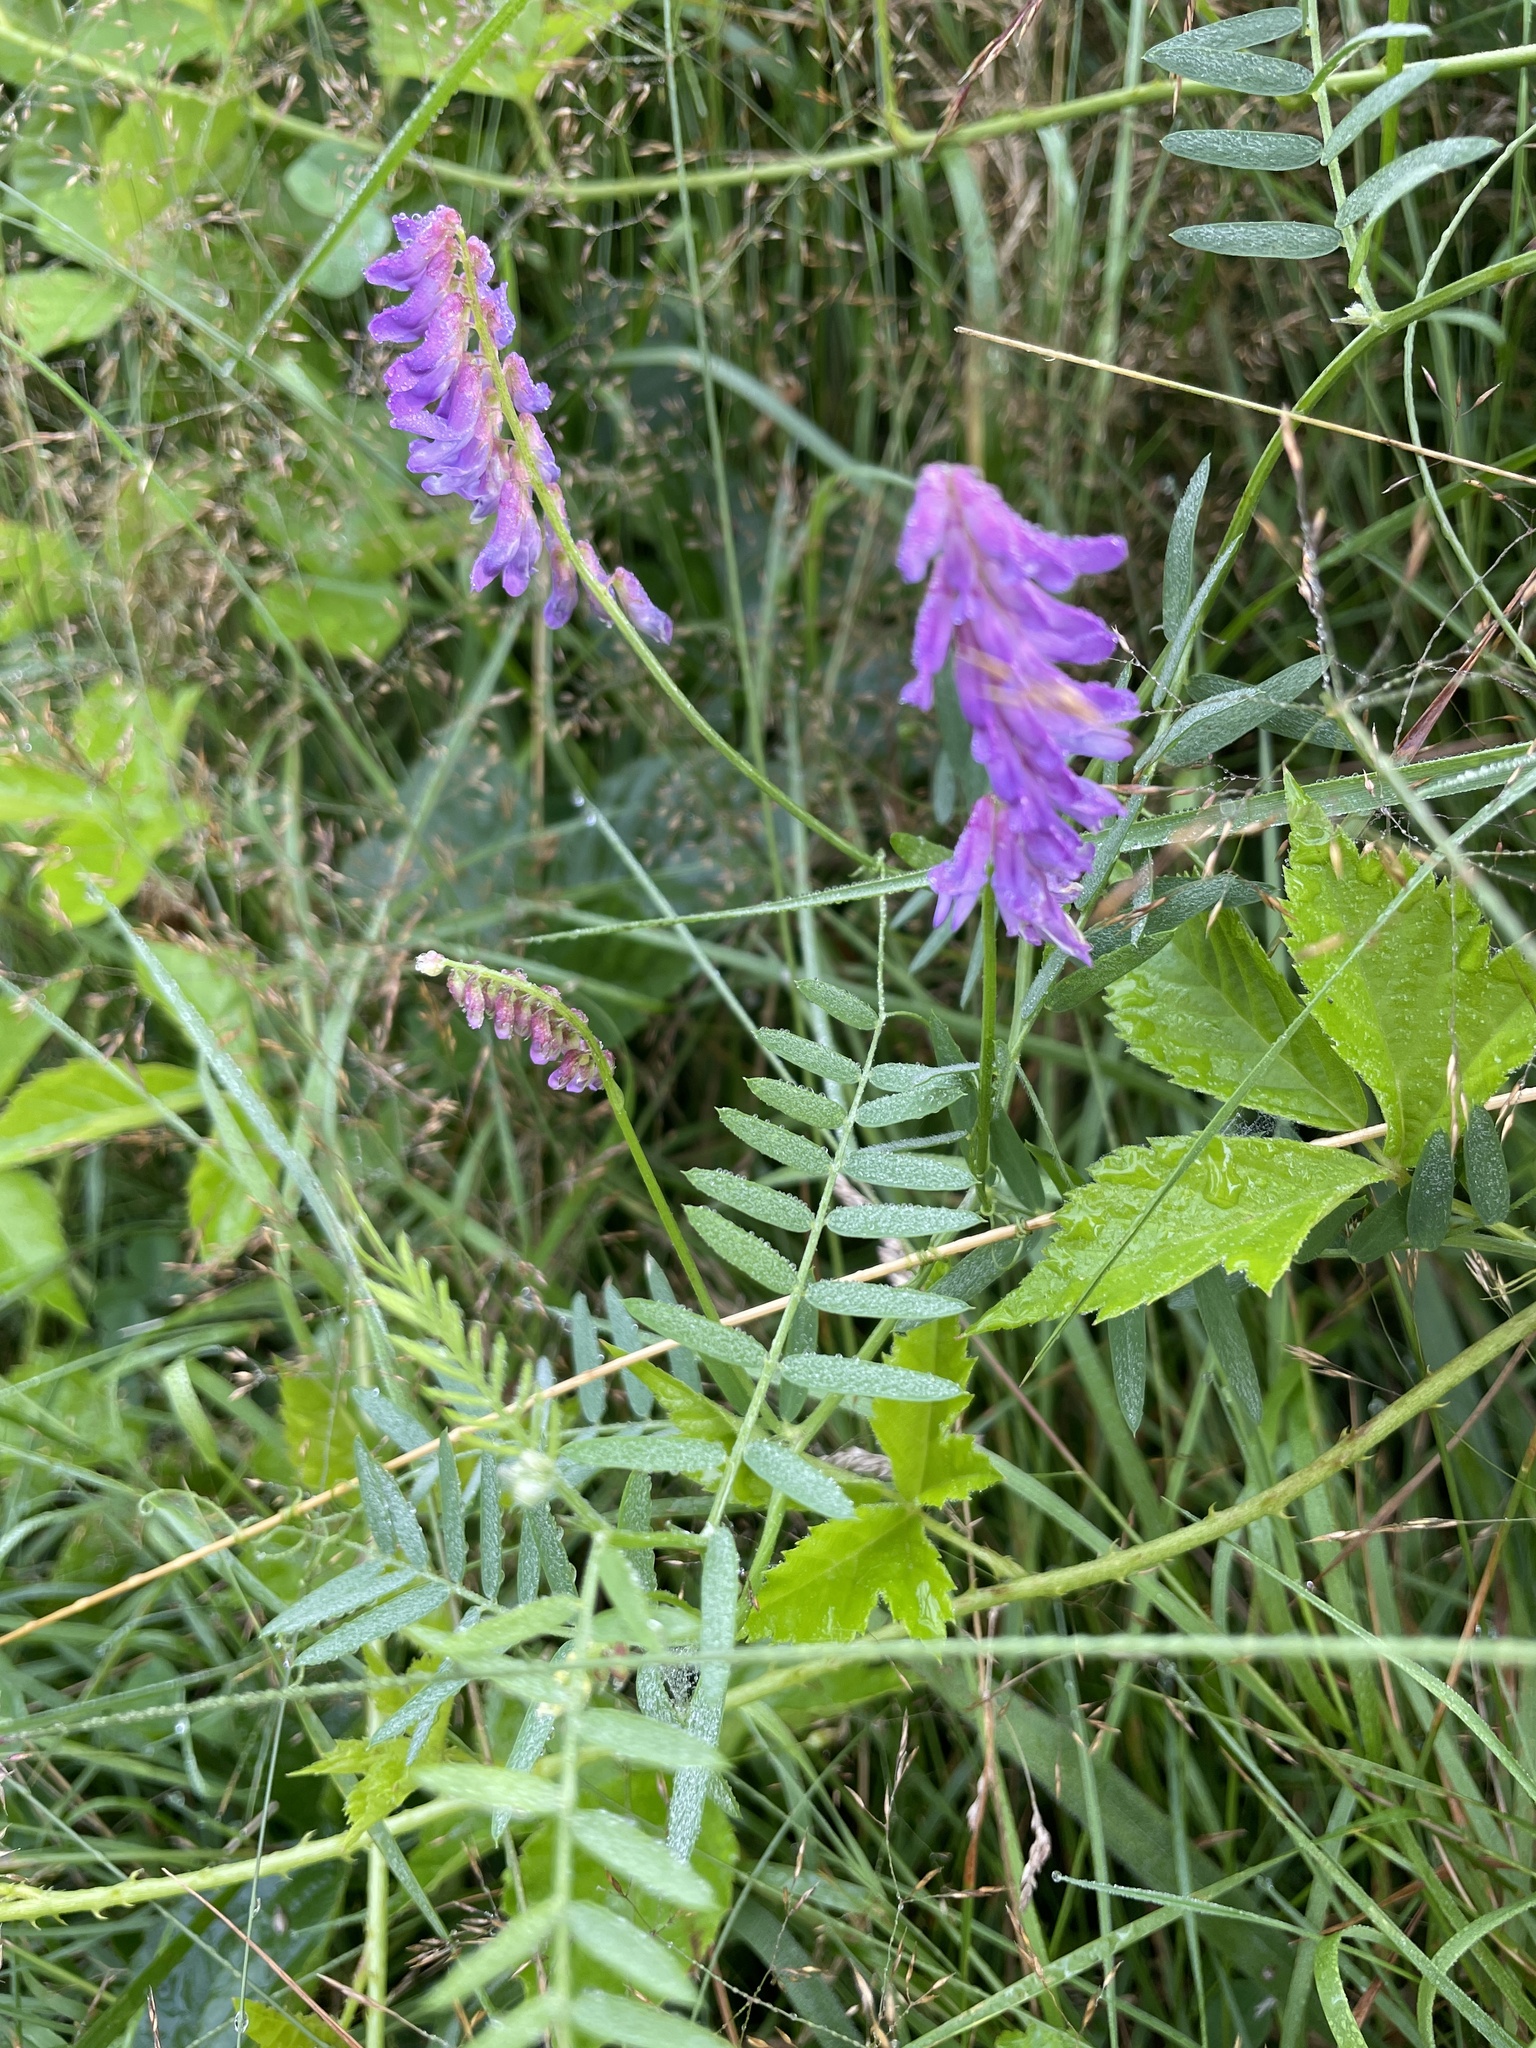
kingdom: Plantae
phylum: Tracheophyta
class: Magnoliopsida
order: Fabales
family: Fabaceae
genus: Vicia
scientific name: Vicia cracca
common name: Bird vetch
